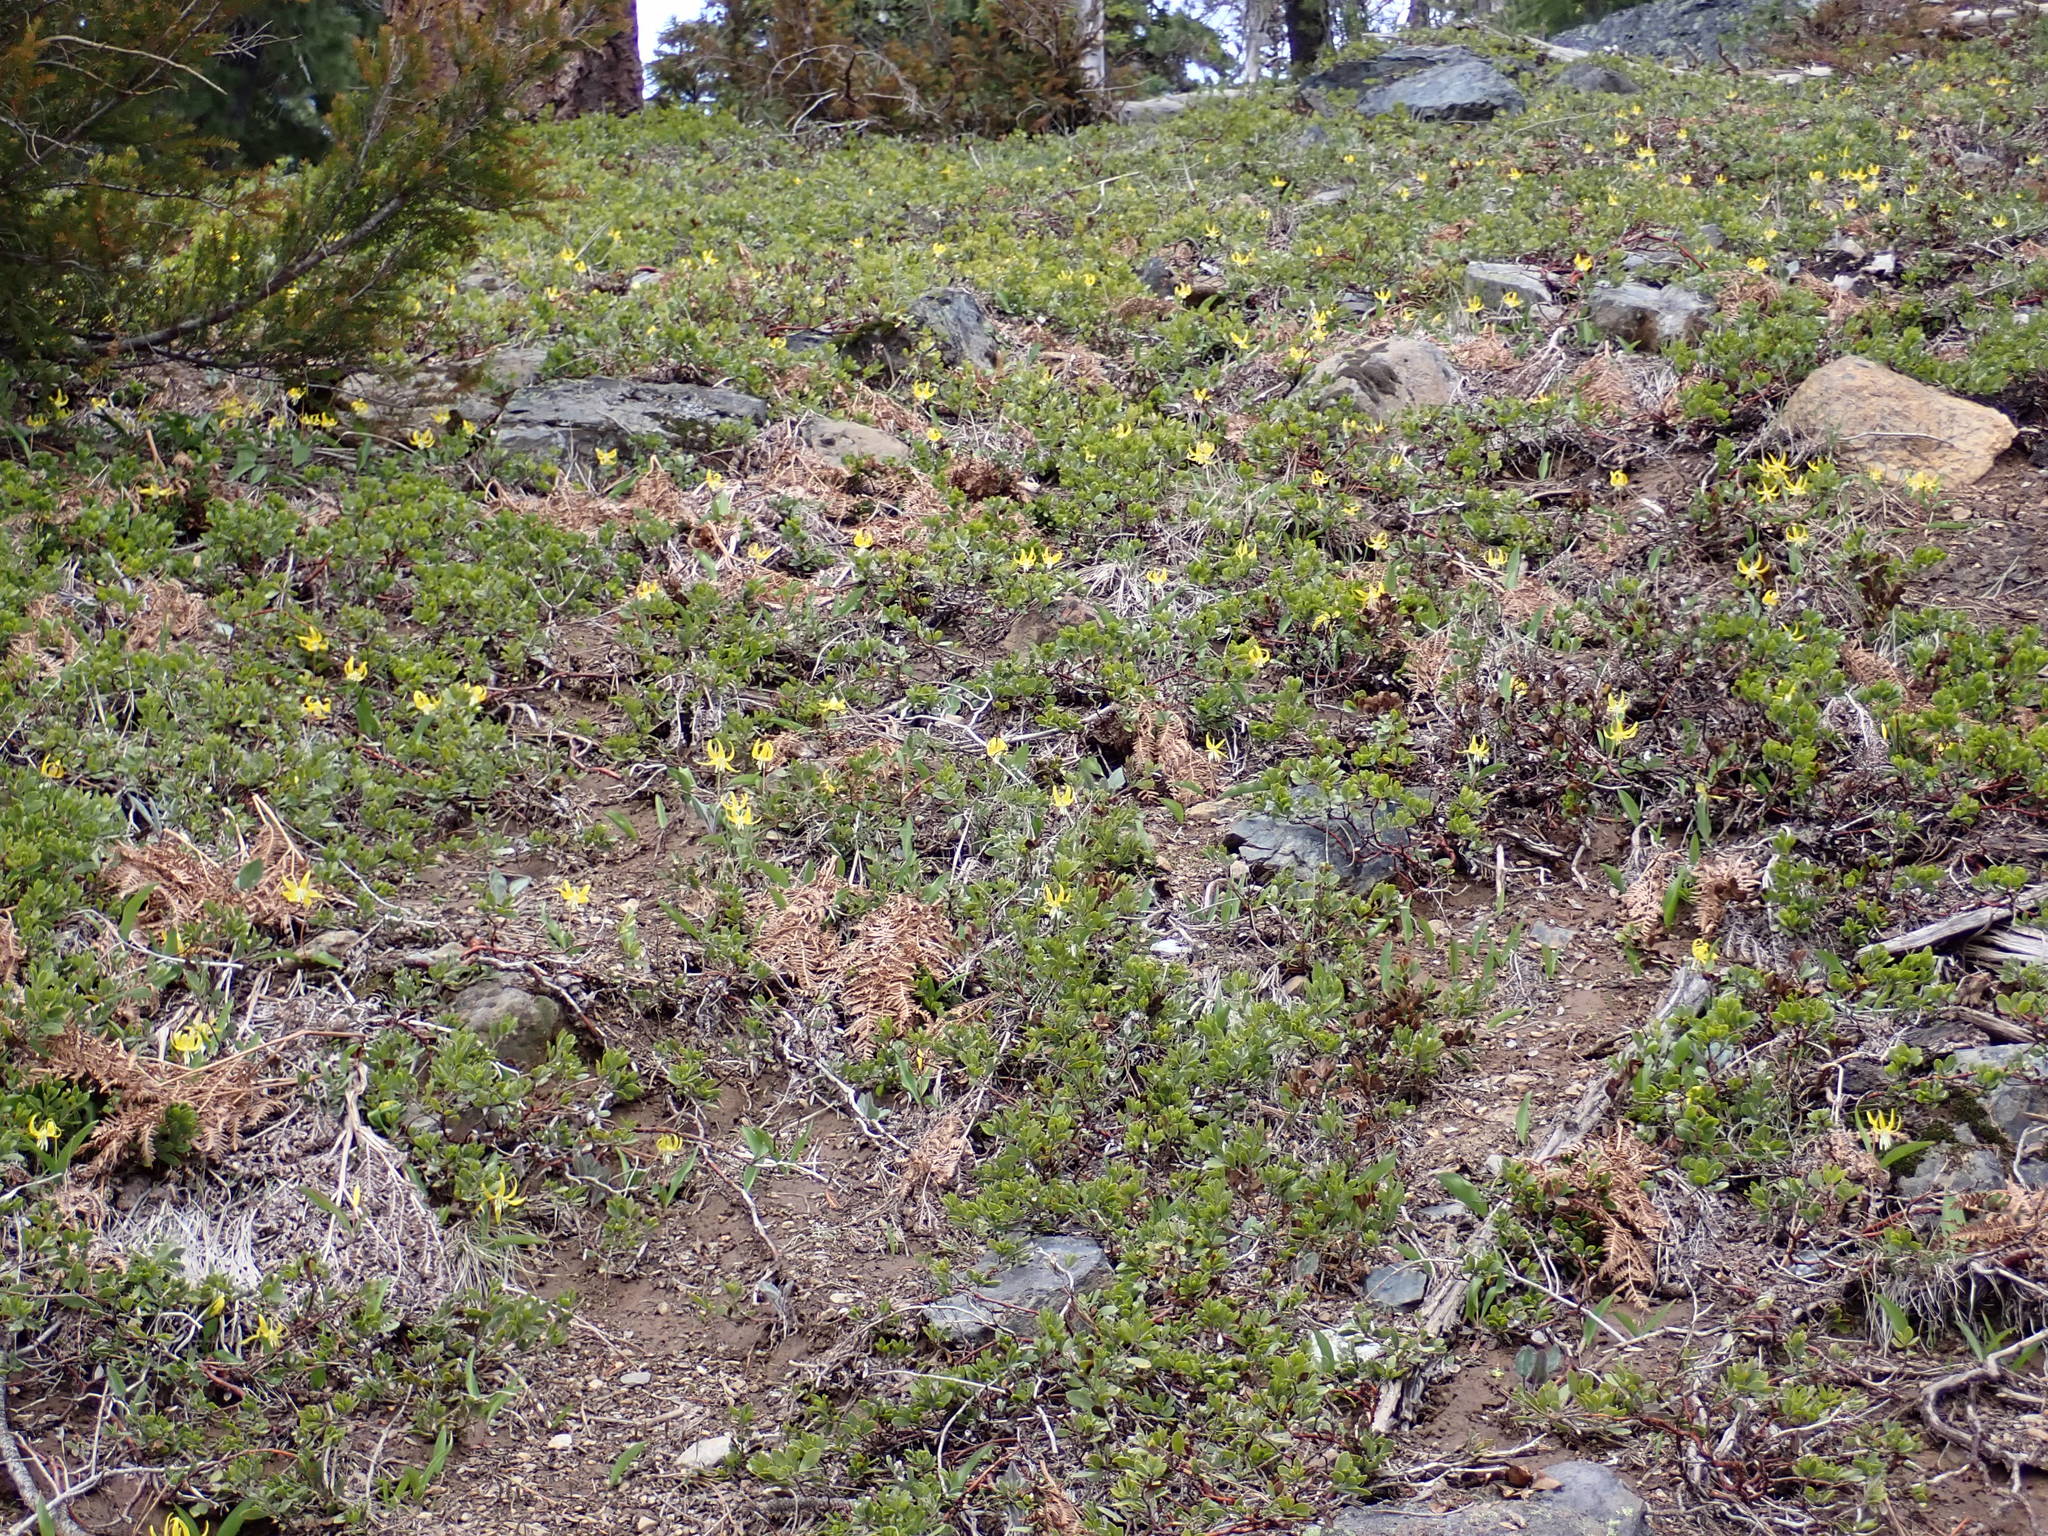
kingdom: Plantae
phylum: Tracheophyta
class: Liliopsida
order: Liliales
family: Liliaceae
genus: Erythronium
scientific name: Erythronium grandiflorum
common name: Avalanche-lily
